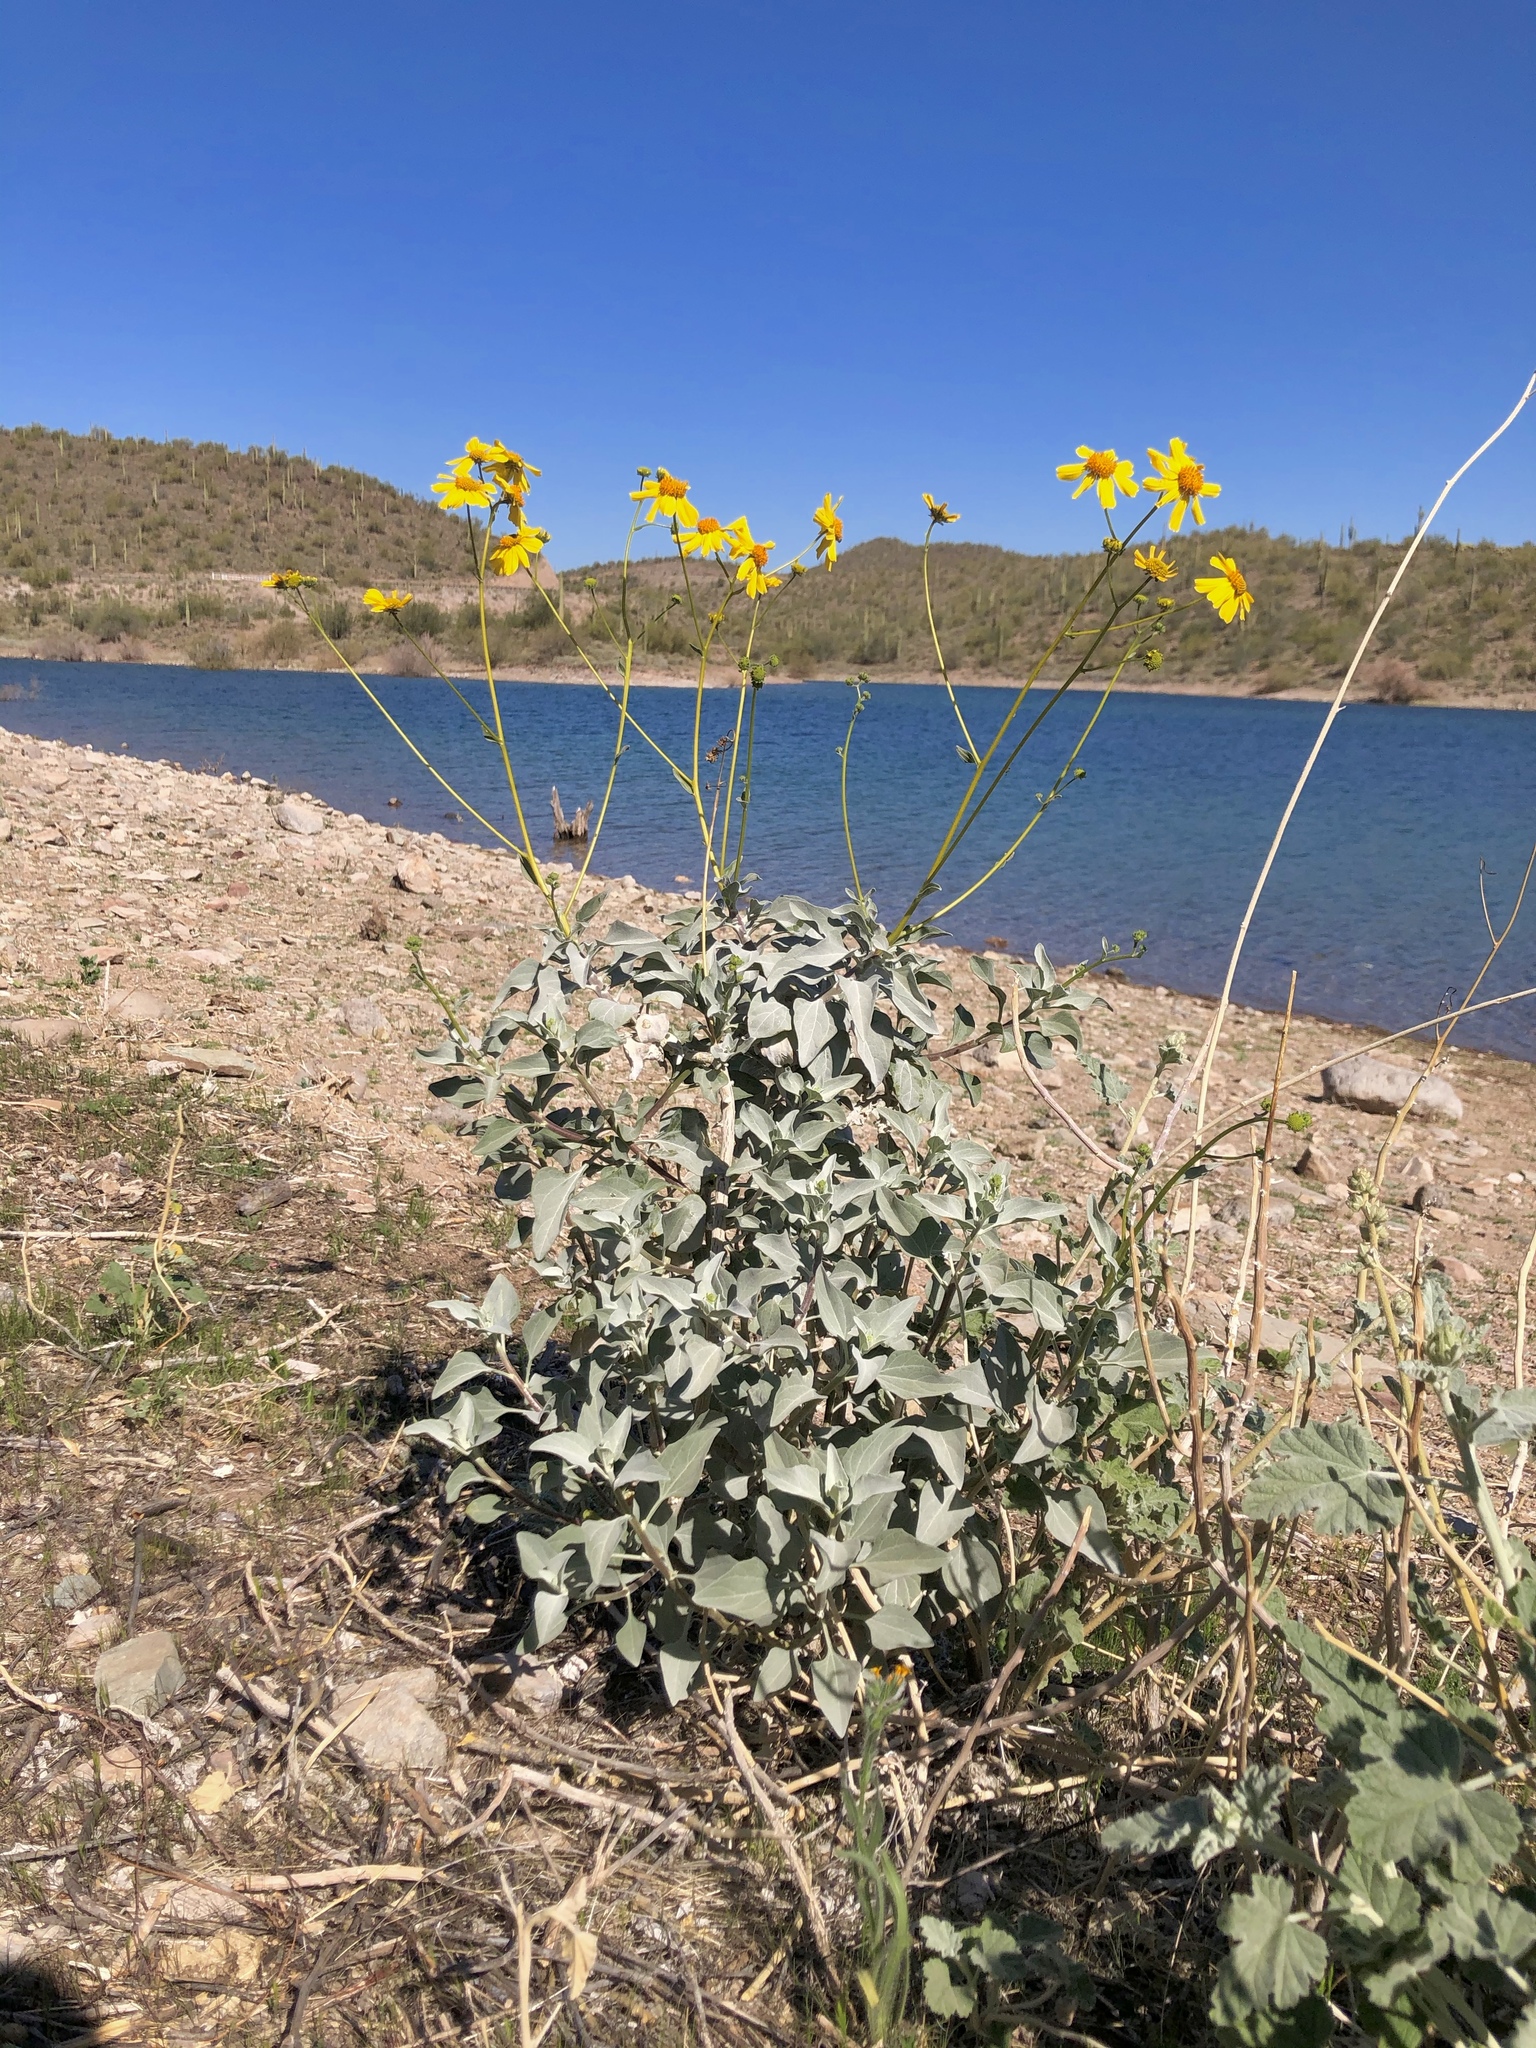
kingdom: Plantae
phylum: Tracheophyta
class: Magnoliopsida
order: Asterales
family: Asteraceae
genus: Encelia
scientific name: Encelia farinosa
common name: Brittlebush
